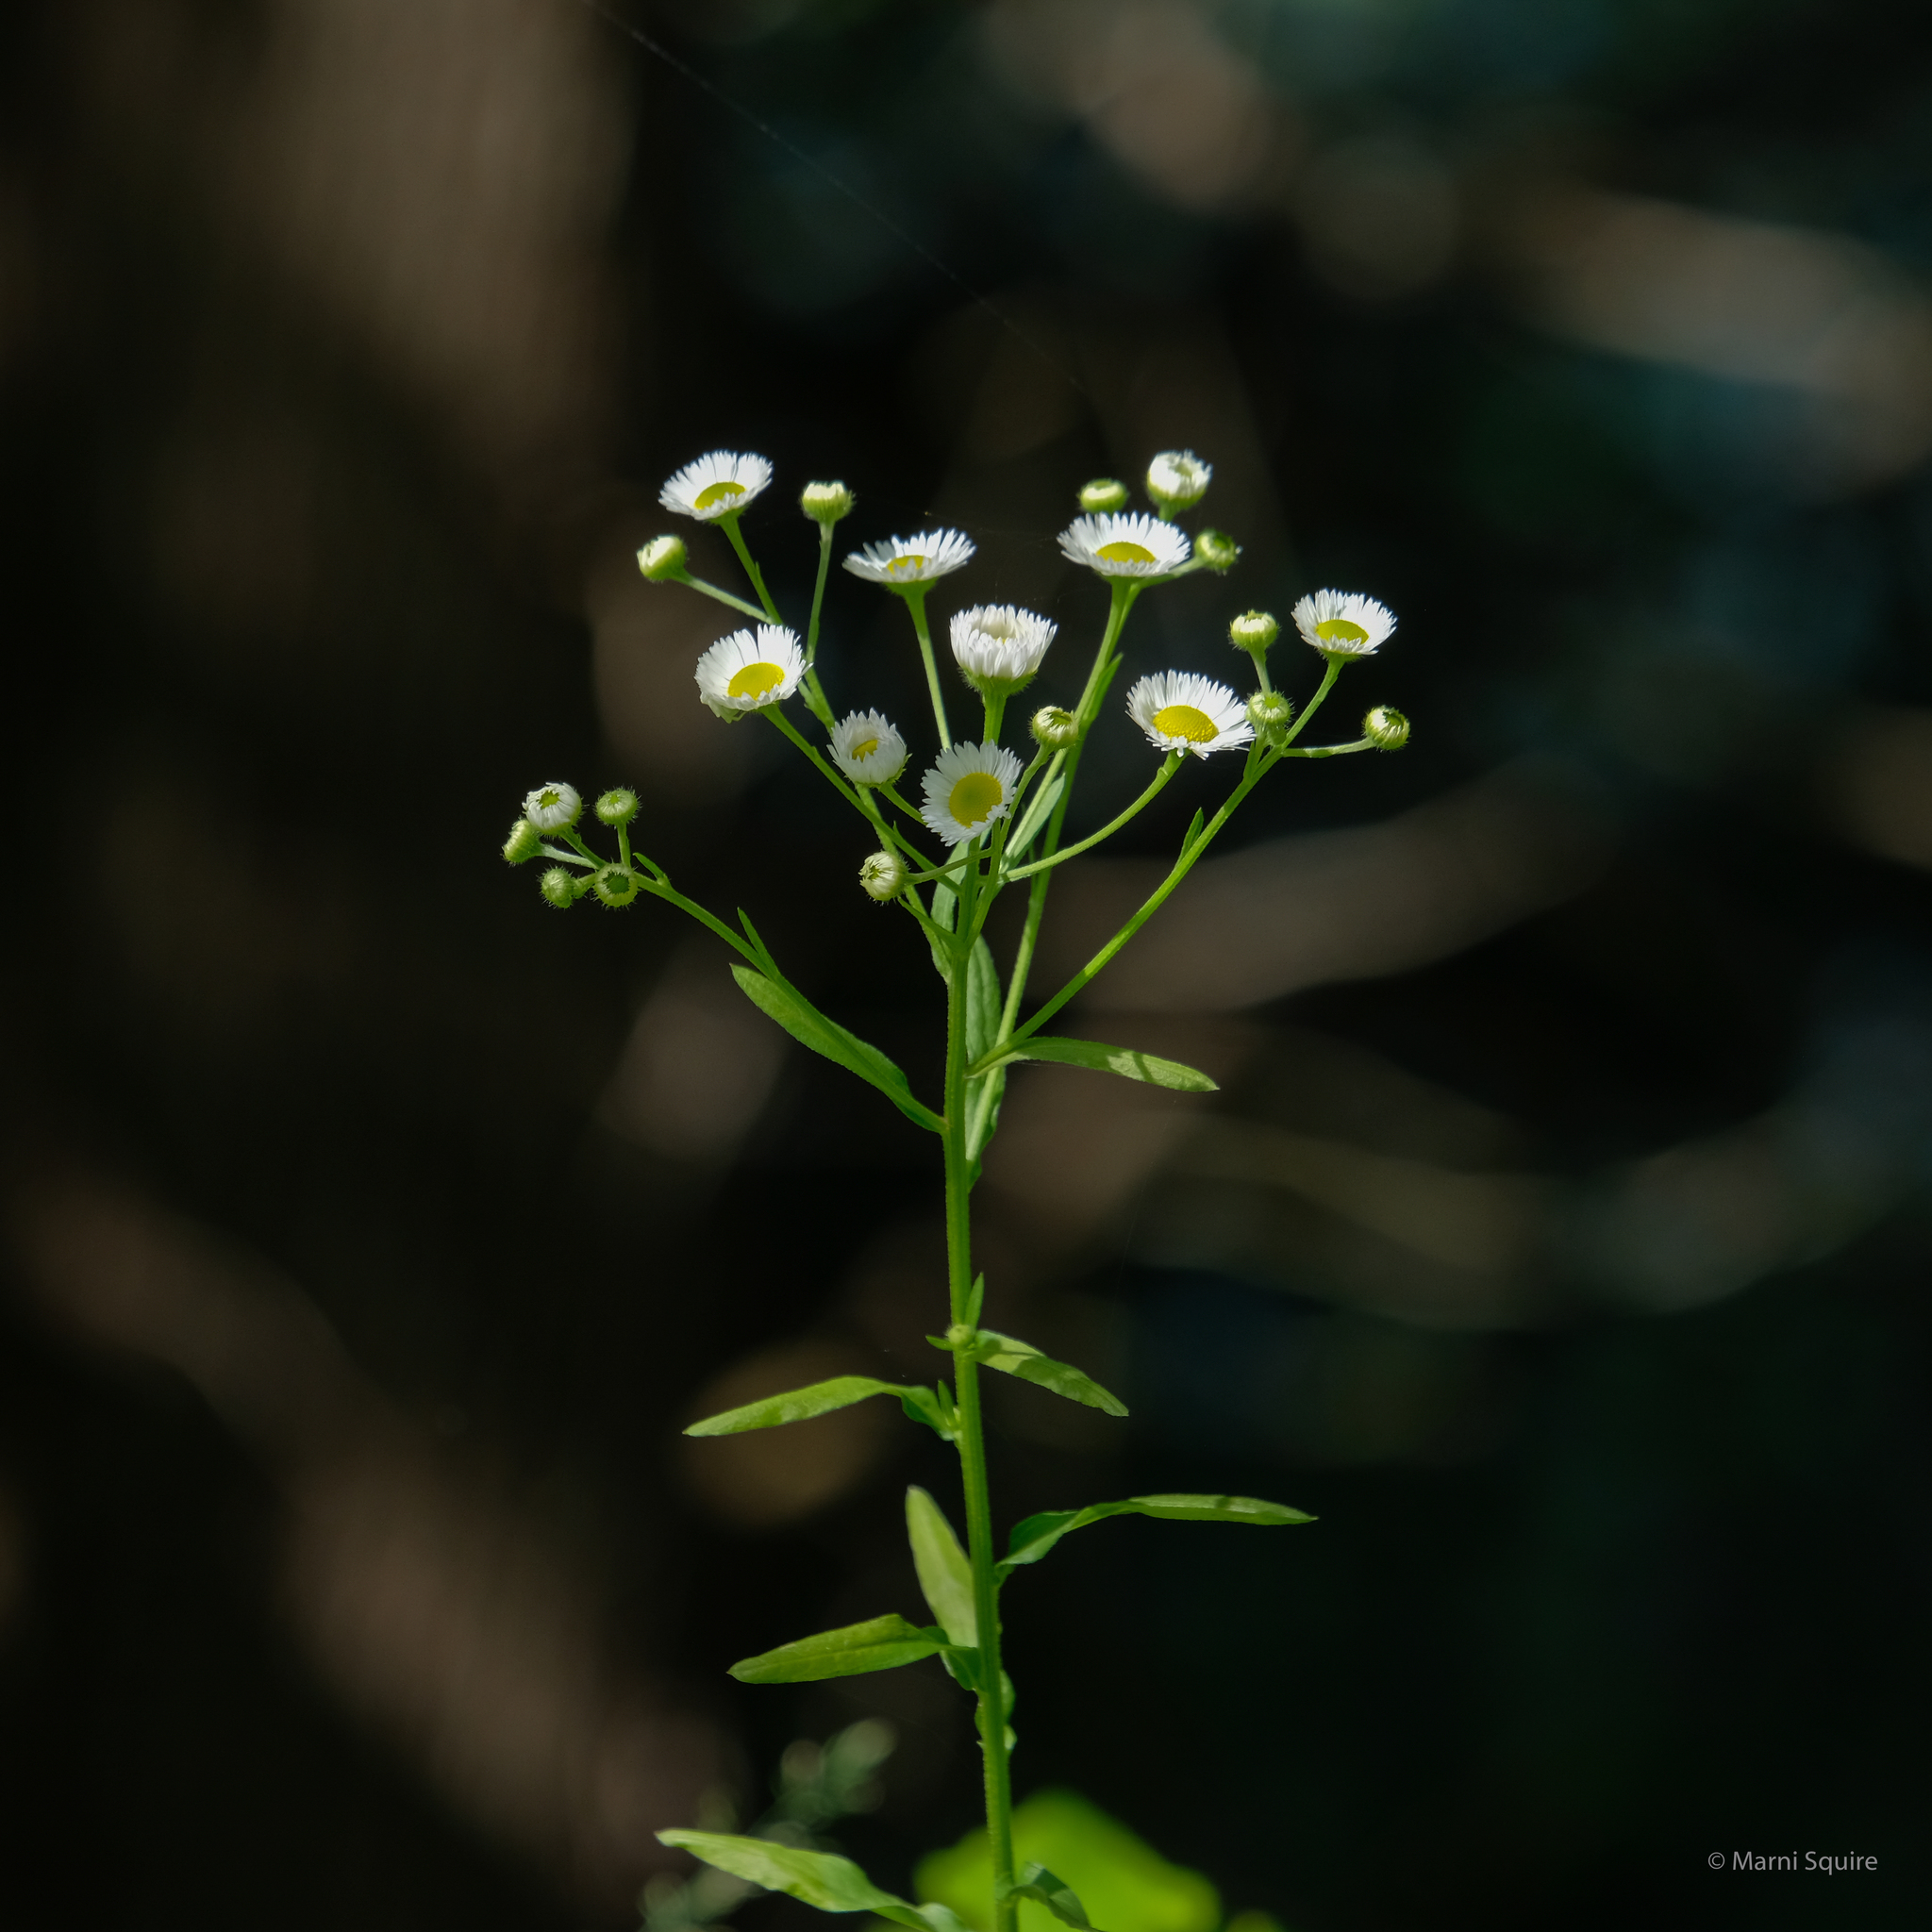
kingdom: Plantae
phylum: Tracheophyta
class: Magnoliopsida
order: Asterales
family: Asteraceae
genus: Erigeron
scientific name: Erigeron strigosus
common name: Common eastern fleabane
